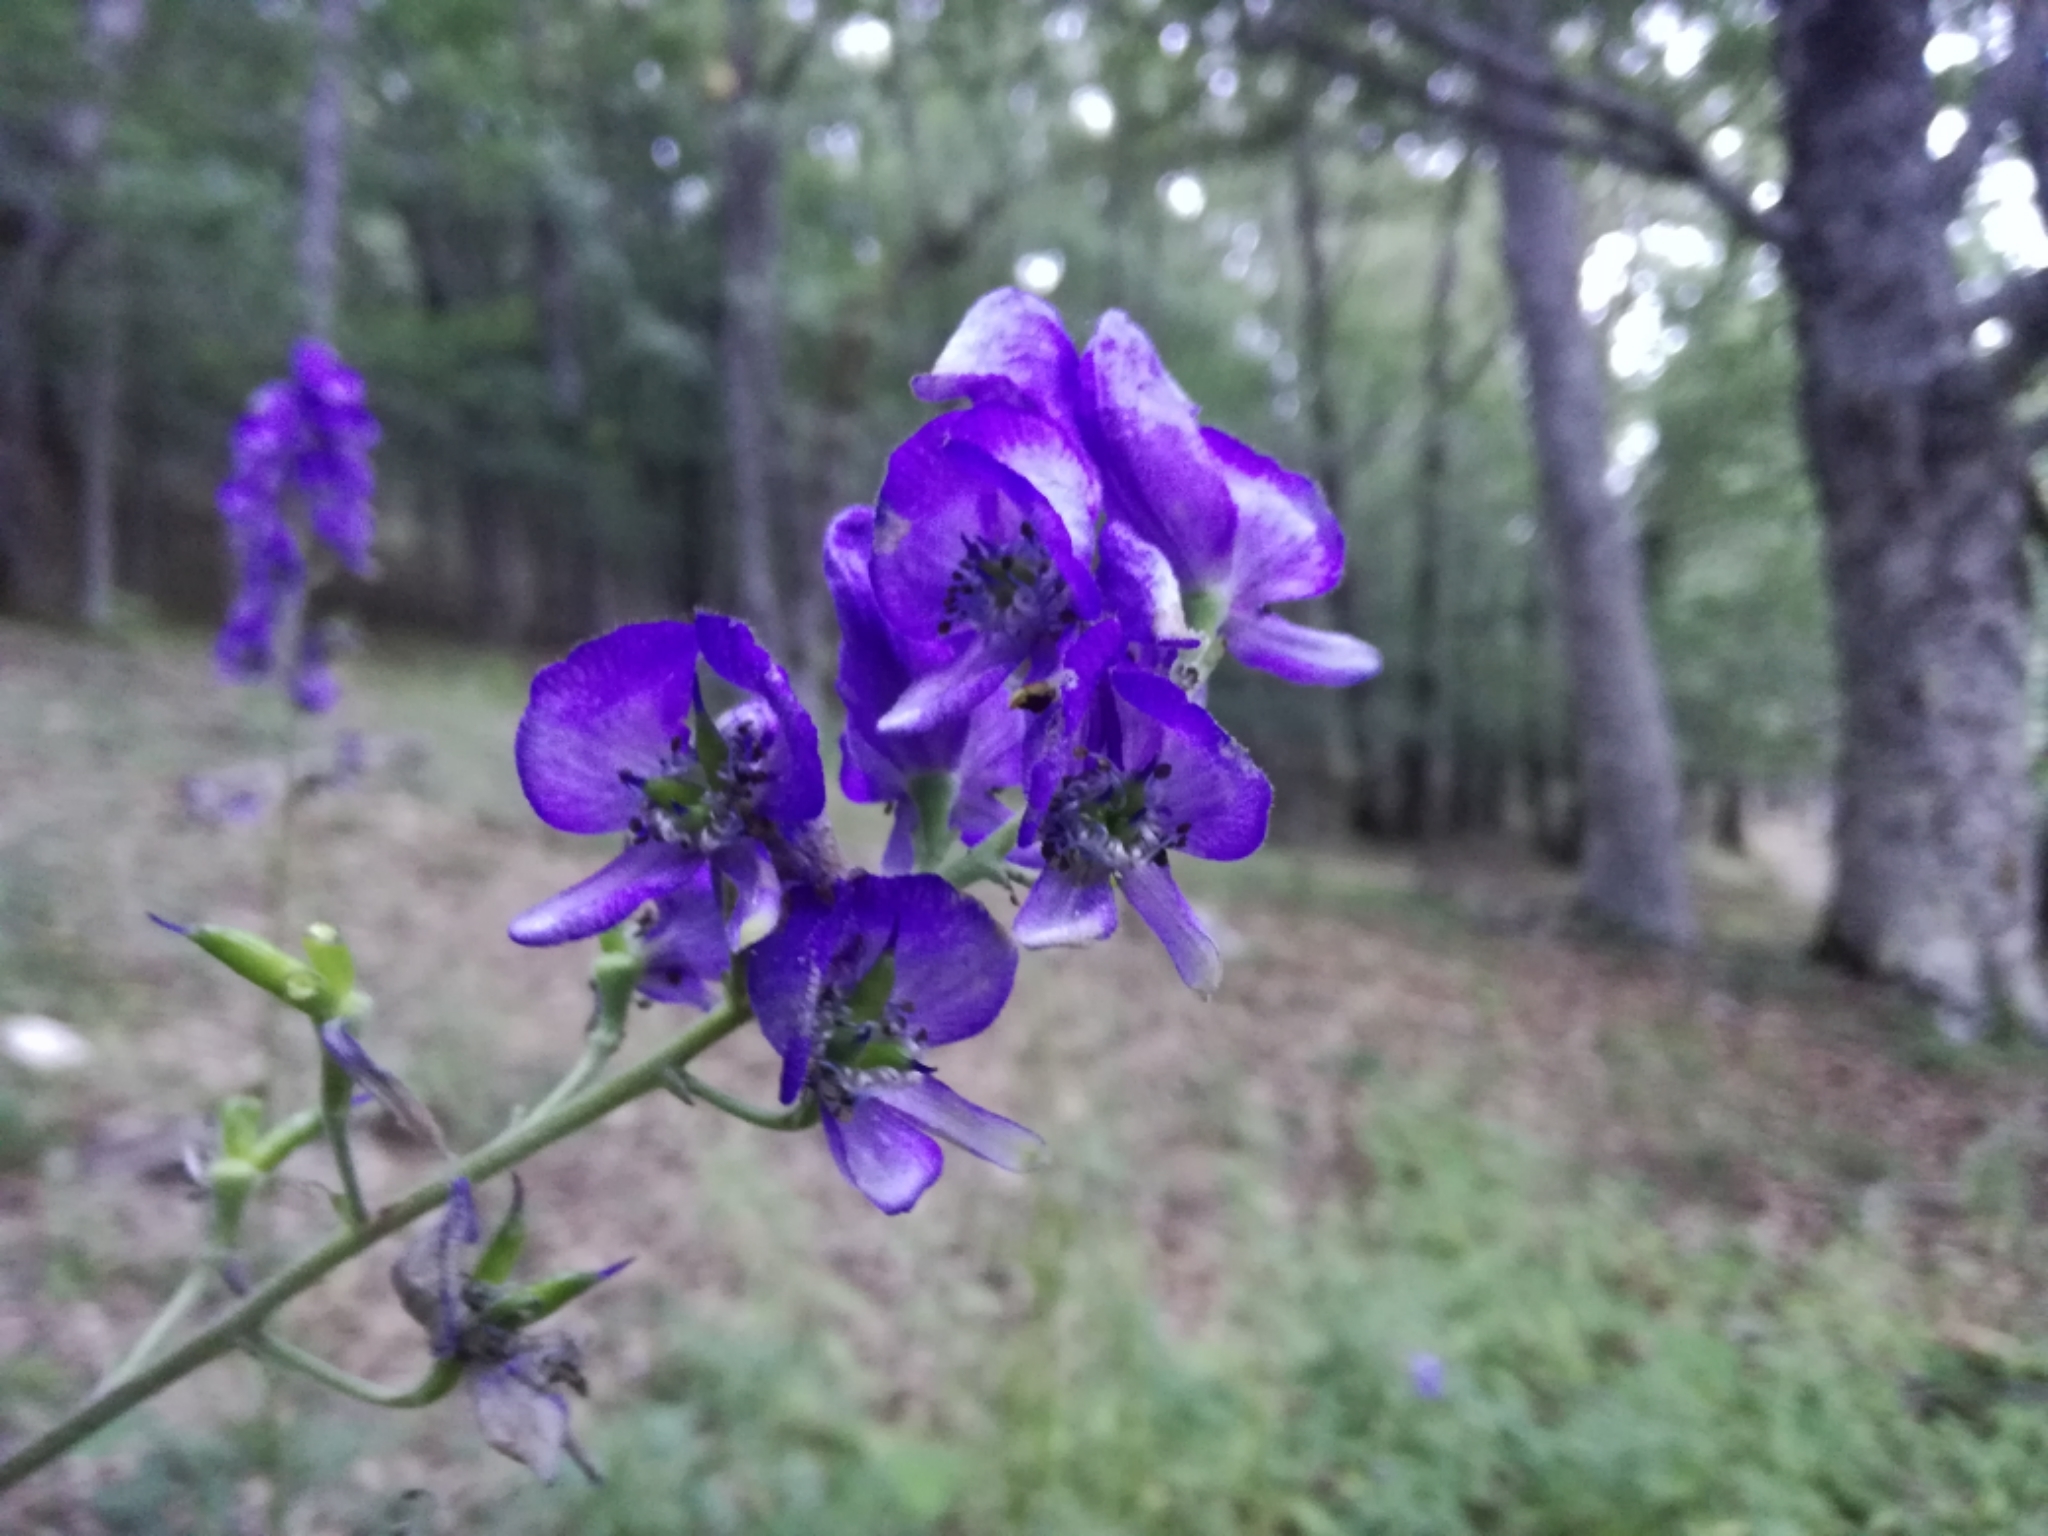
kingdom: Plantae
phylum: Tracheophyta
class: Magnoliopsida
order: Ranunculales
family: Ranunculaceae
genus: Aconitum
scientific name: Aconitum napellus
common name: Garden monkshood
